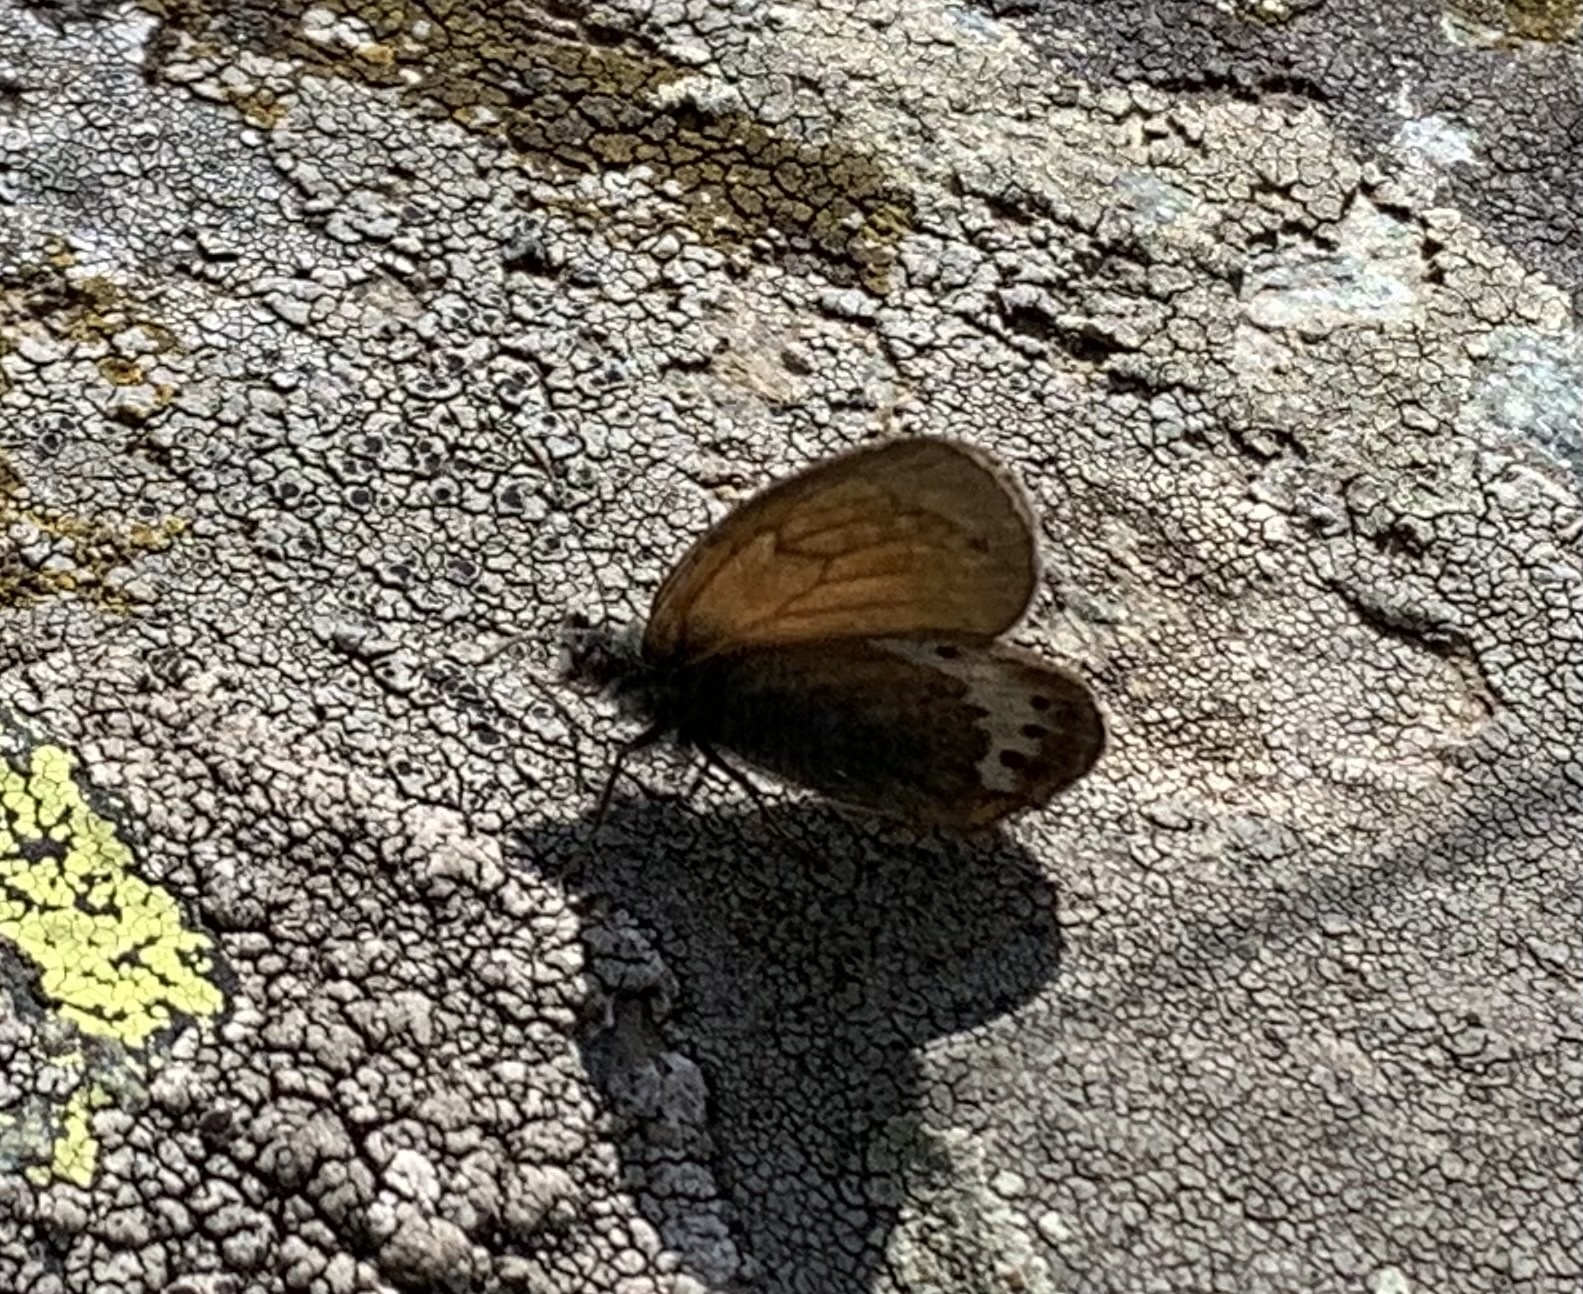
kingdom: Animalia
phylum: Arthropoda
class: Insecta
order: Lepidoptera
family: Nymphalidae
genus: Coenonympha
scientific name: Coenonympha
